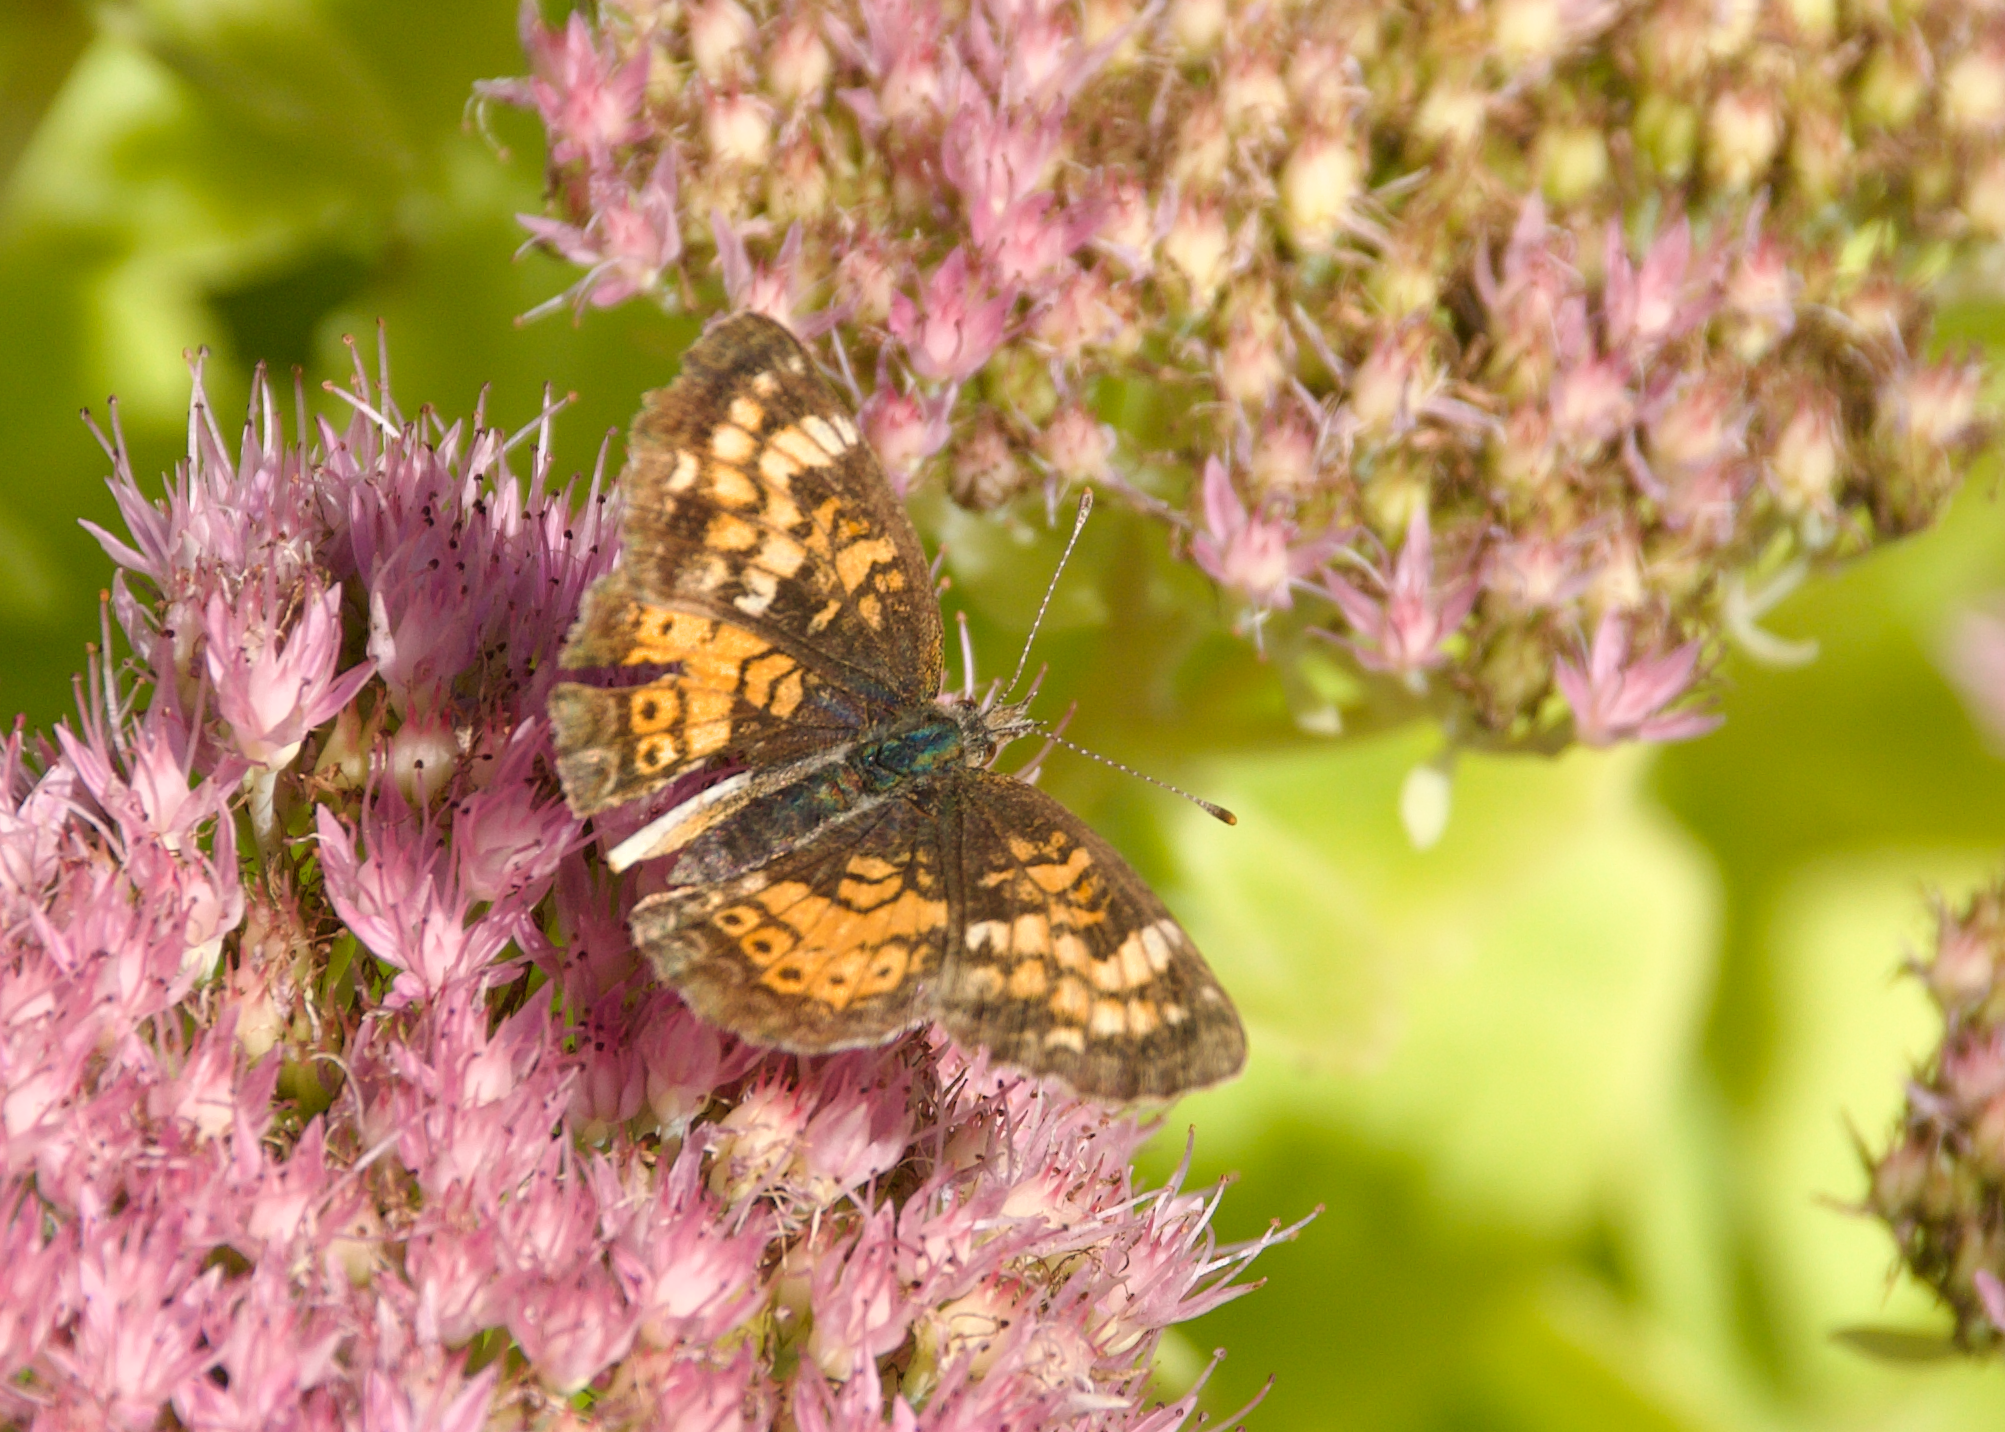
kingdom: Animalia
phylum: Arthropoda
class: Insecta
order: Lepidoptera
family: Nymphalidae
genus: Phyciodes
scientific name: Phyciodes tharos
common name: Pearl crescent
